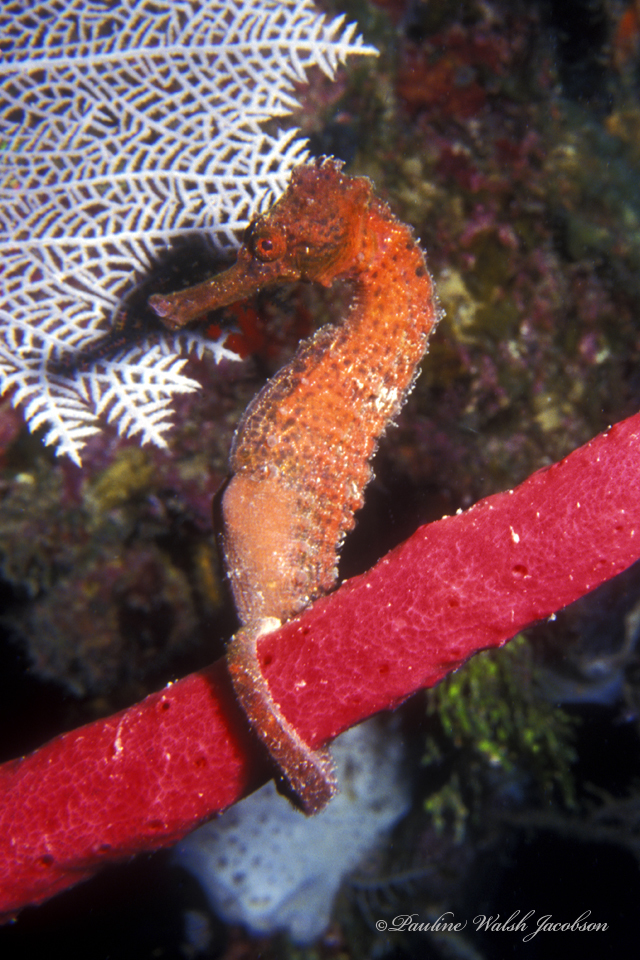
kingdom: Animalia
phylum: Chordata
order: Syngnathiformes
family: Syngnathidae
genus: Hippocampus
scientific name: Hippocampus reidi
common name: Slender seahorse
